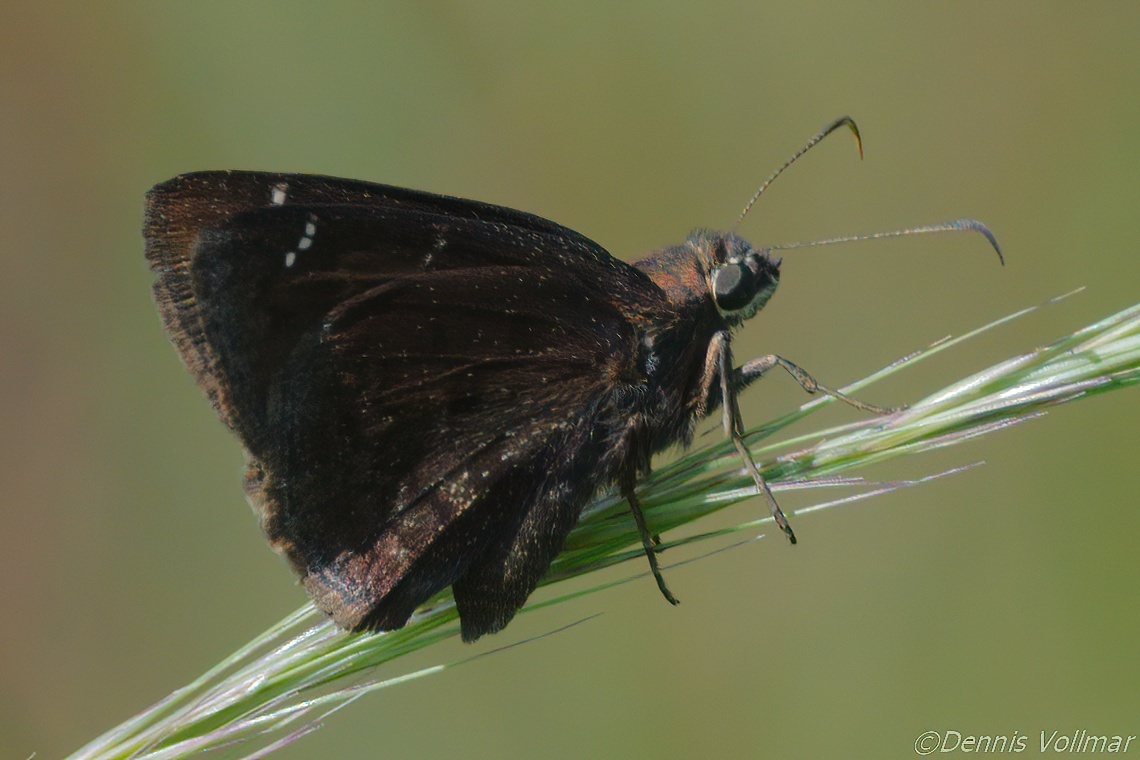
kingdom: Animalia
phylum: Arthropoda
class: Insecta
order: Lepidoptera
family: Hesperiidae
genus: Thorybes
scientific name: Thorybes mexicana
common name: Mexican cloudywing
